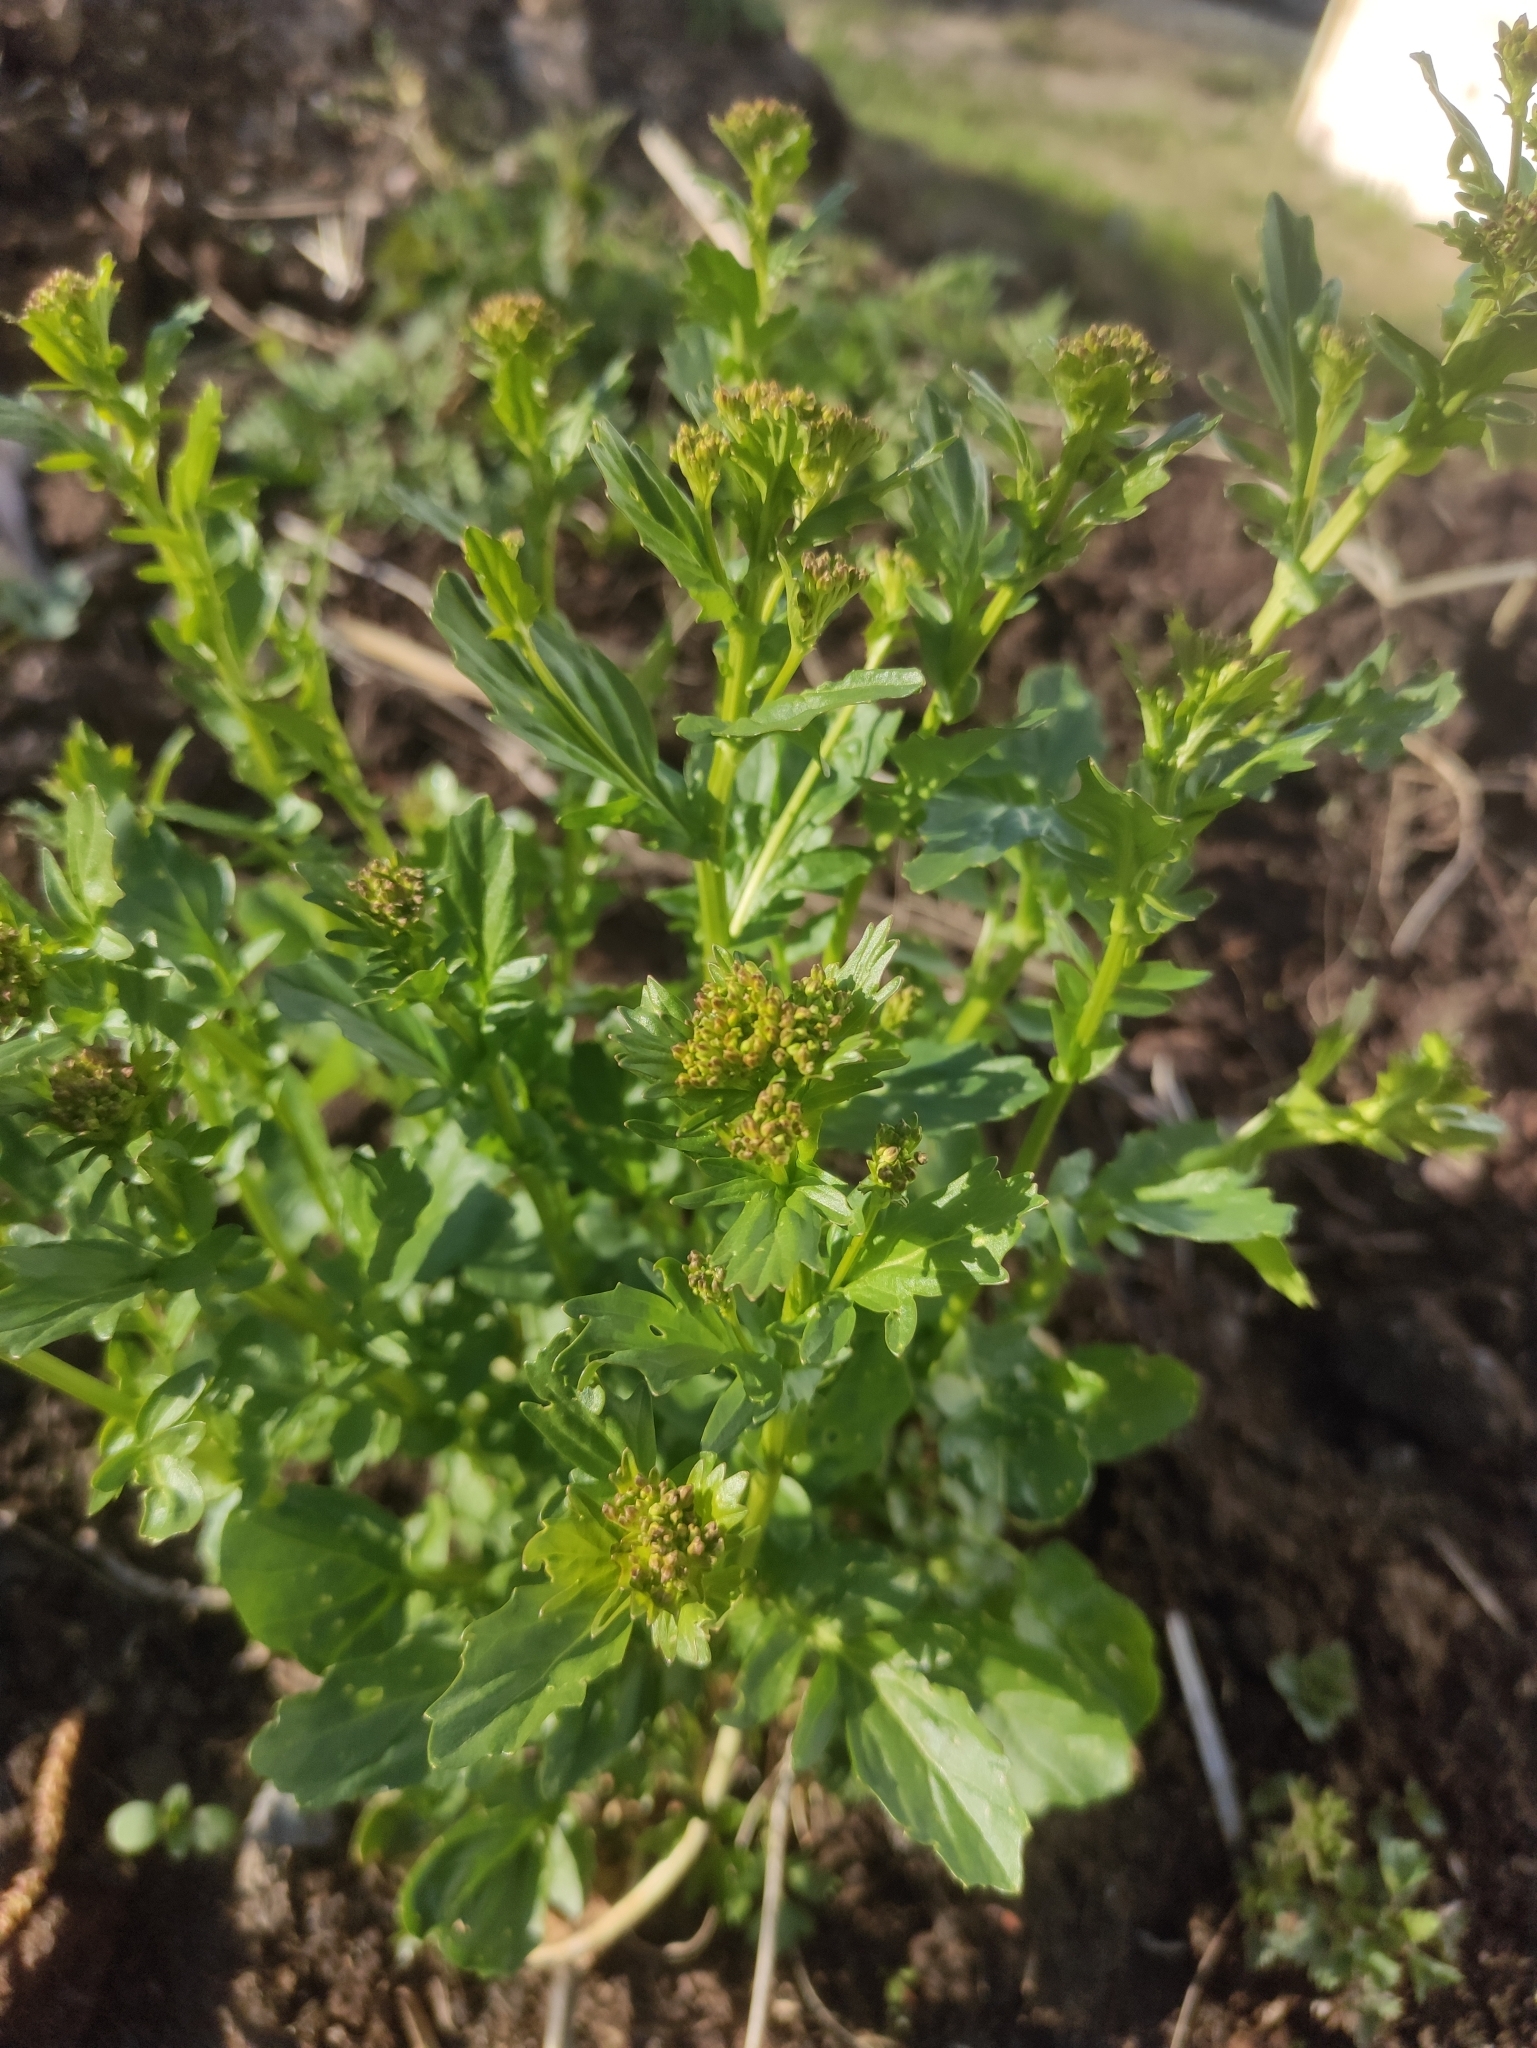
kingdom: Plantae
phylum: Tracheophyta
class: Magnoliopsida
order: Brassicales
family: Brassicaceae
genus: Barbarea
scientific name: Barbarea vulgaris
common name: Cressy-greens
